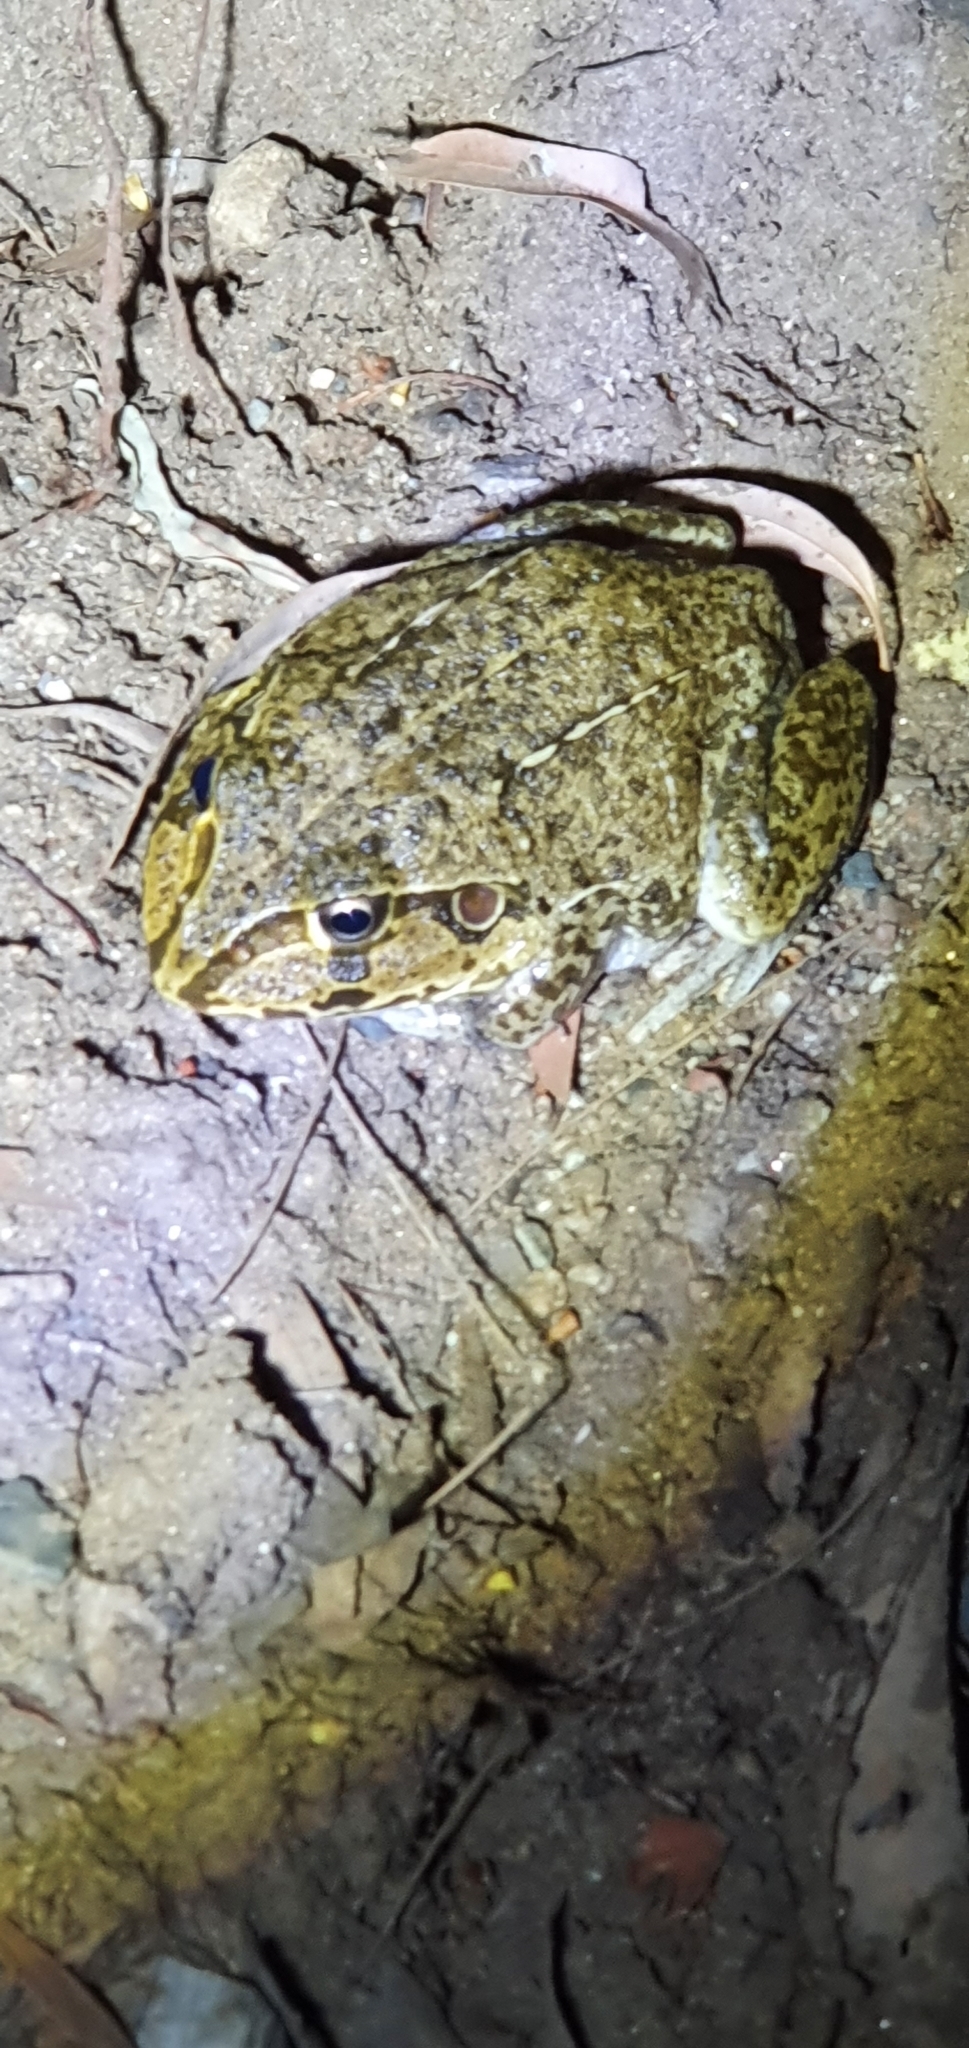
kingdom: Animalia
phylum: Chordata
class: Amphibia
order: Anura
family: Pelodryadidae
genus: Ranoidea
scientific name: Ranoidea novaehollandiae
